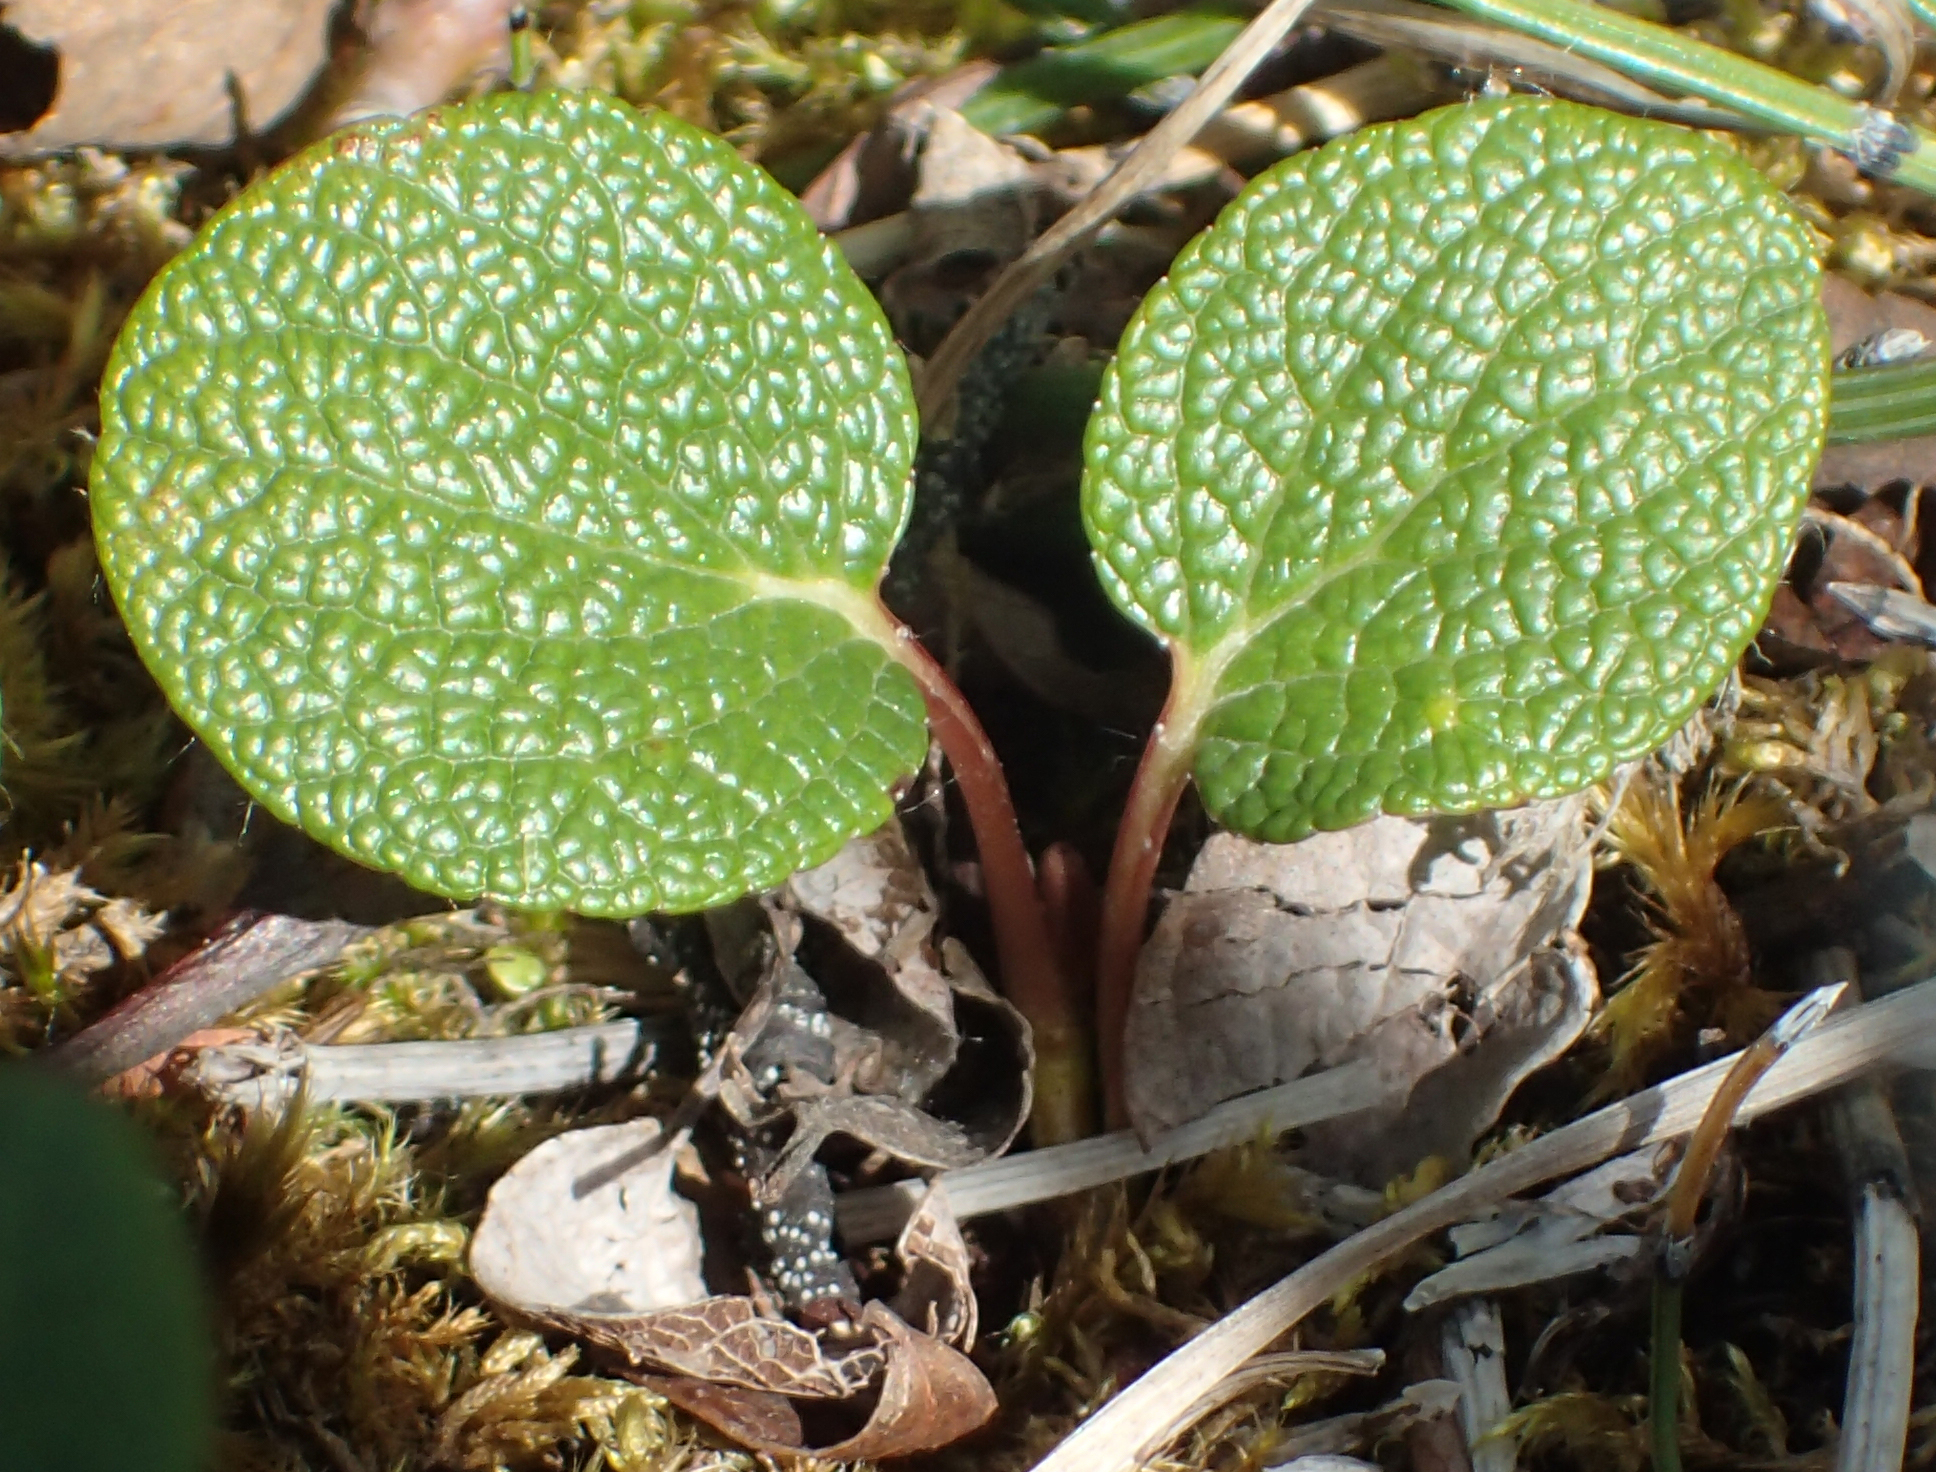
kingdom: Plantae
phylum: Tracheophyta
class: Magnoliopsida
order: Malpighiales
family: Salicaceae
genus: Salix
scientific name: Salix reticulata
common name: Net-leaved willow
